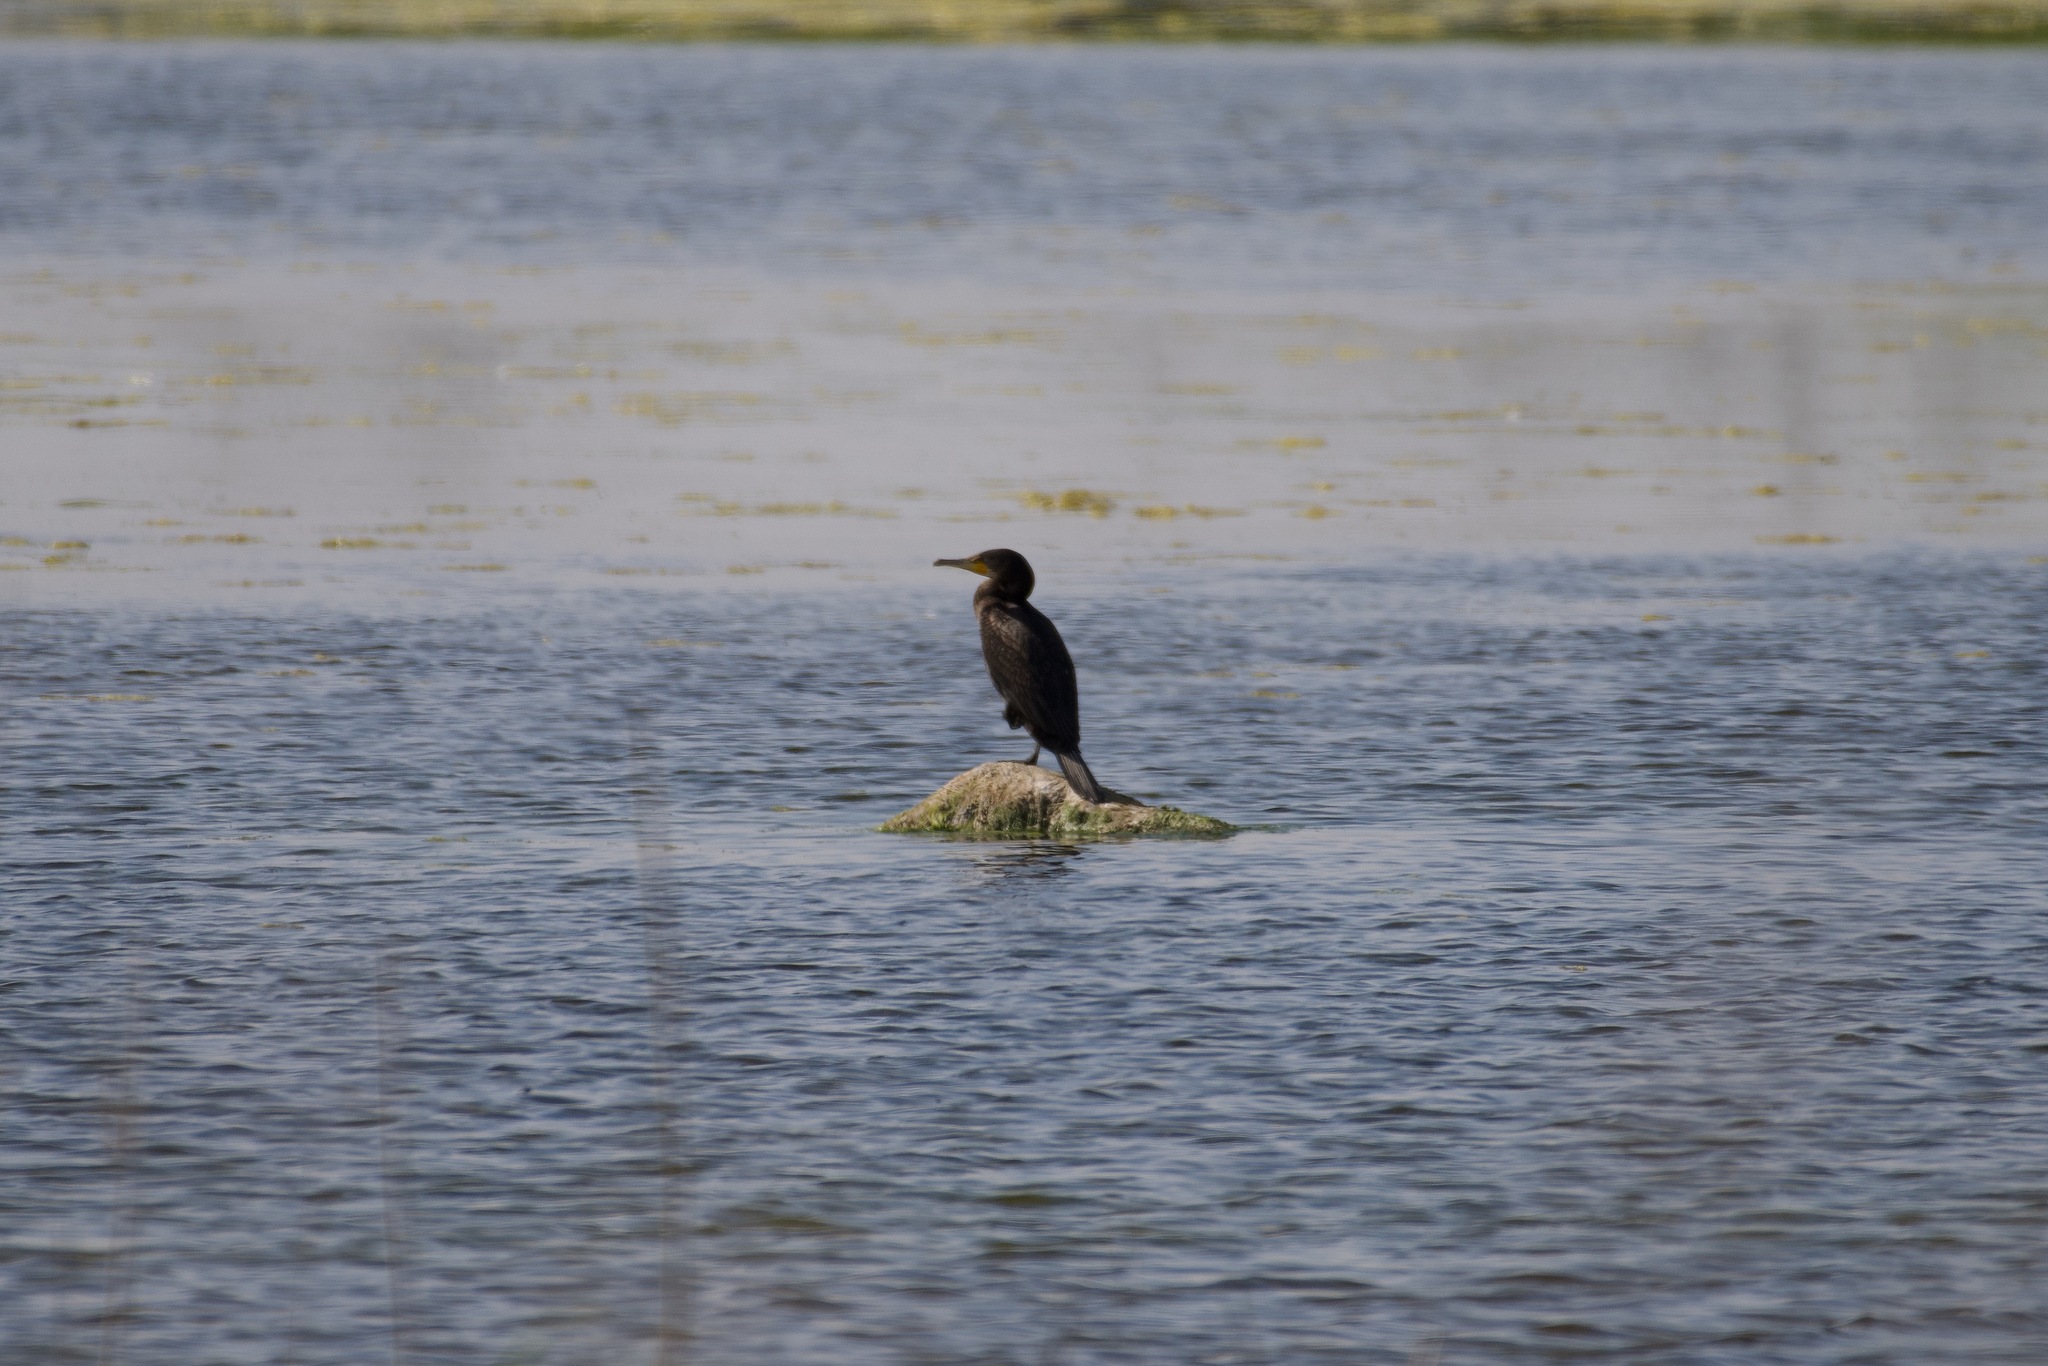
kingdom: Animalia
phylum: Chordata
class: Aves
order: Suliformes
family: Phalacrocoracidae
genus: Phalacrocorax
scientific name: Phalacrocorax carbo
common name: Great cormorant
